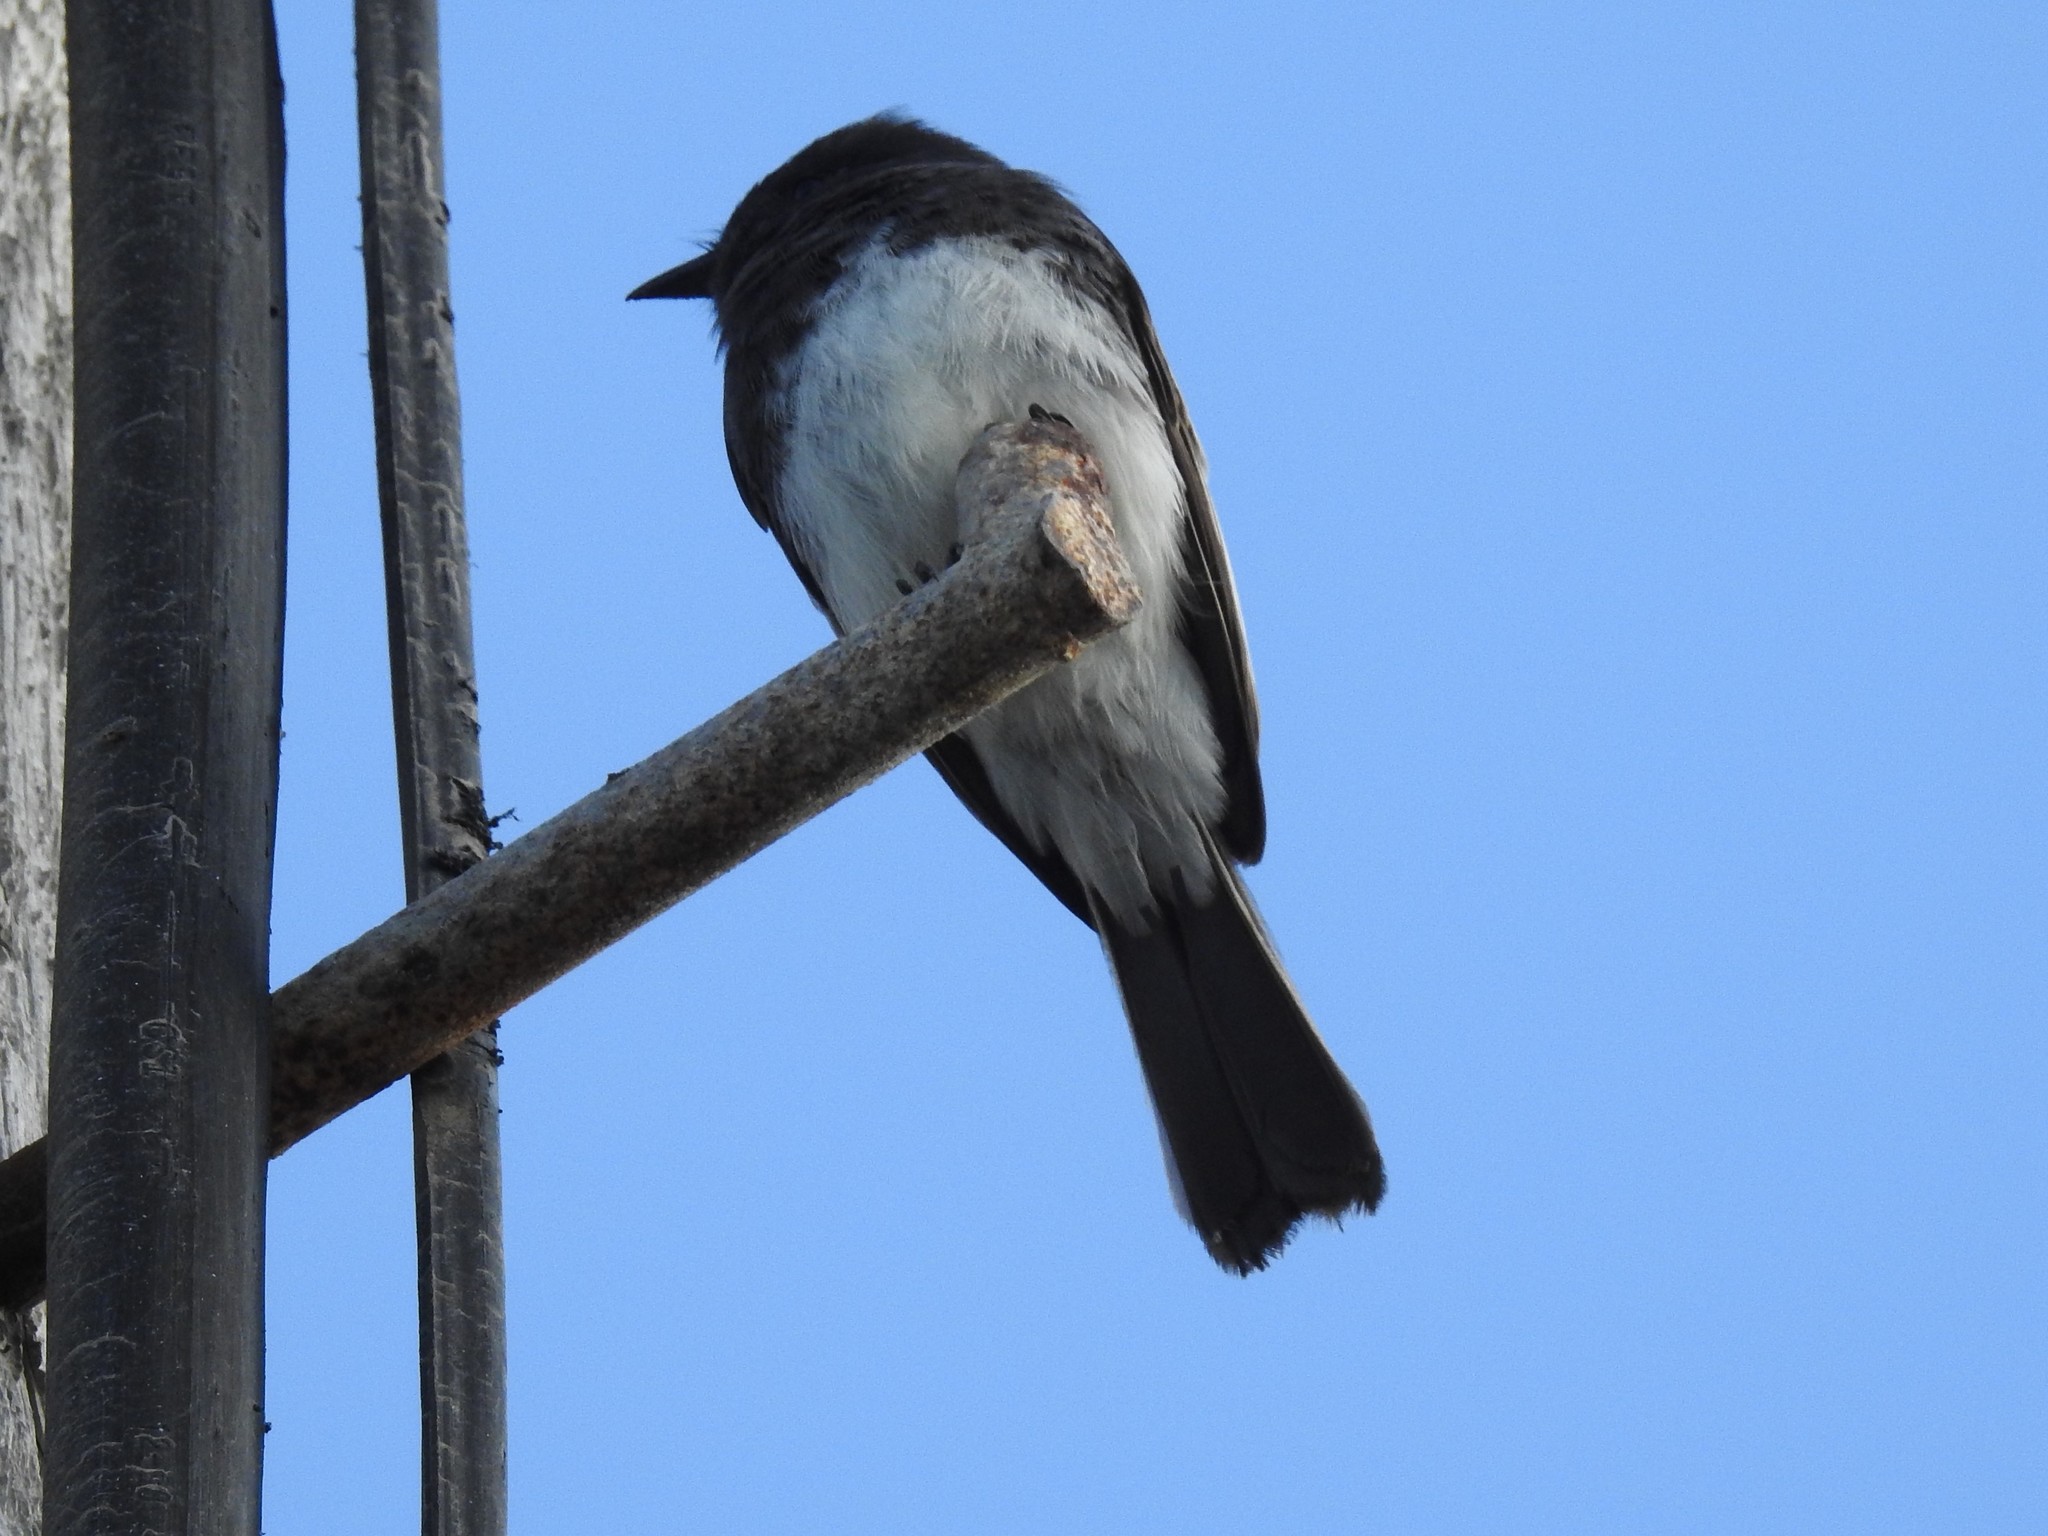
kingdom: Animalia
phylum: Chordata
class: Aves
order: Passeriformes
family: Tyrannidae
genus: Sayornis
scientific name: Sayornis nigricans
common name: Black phoebe
